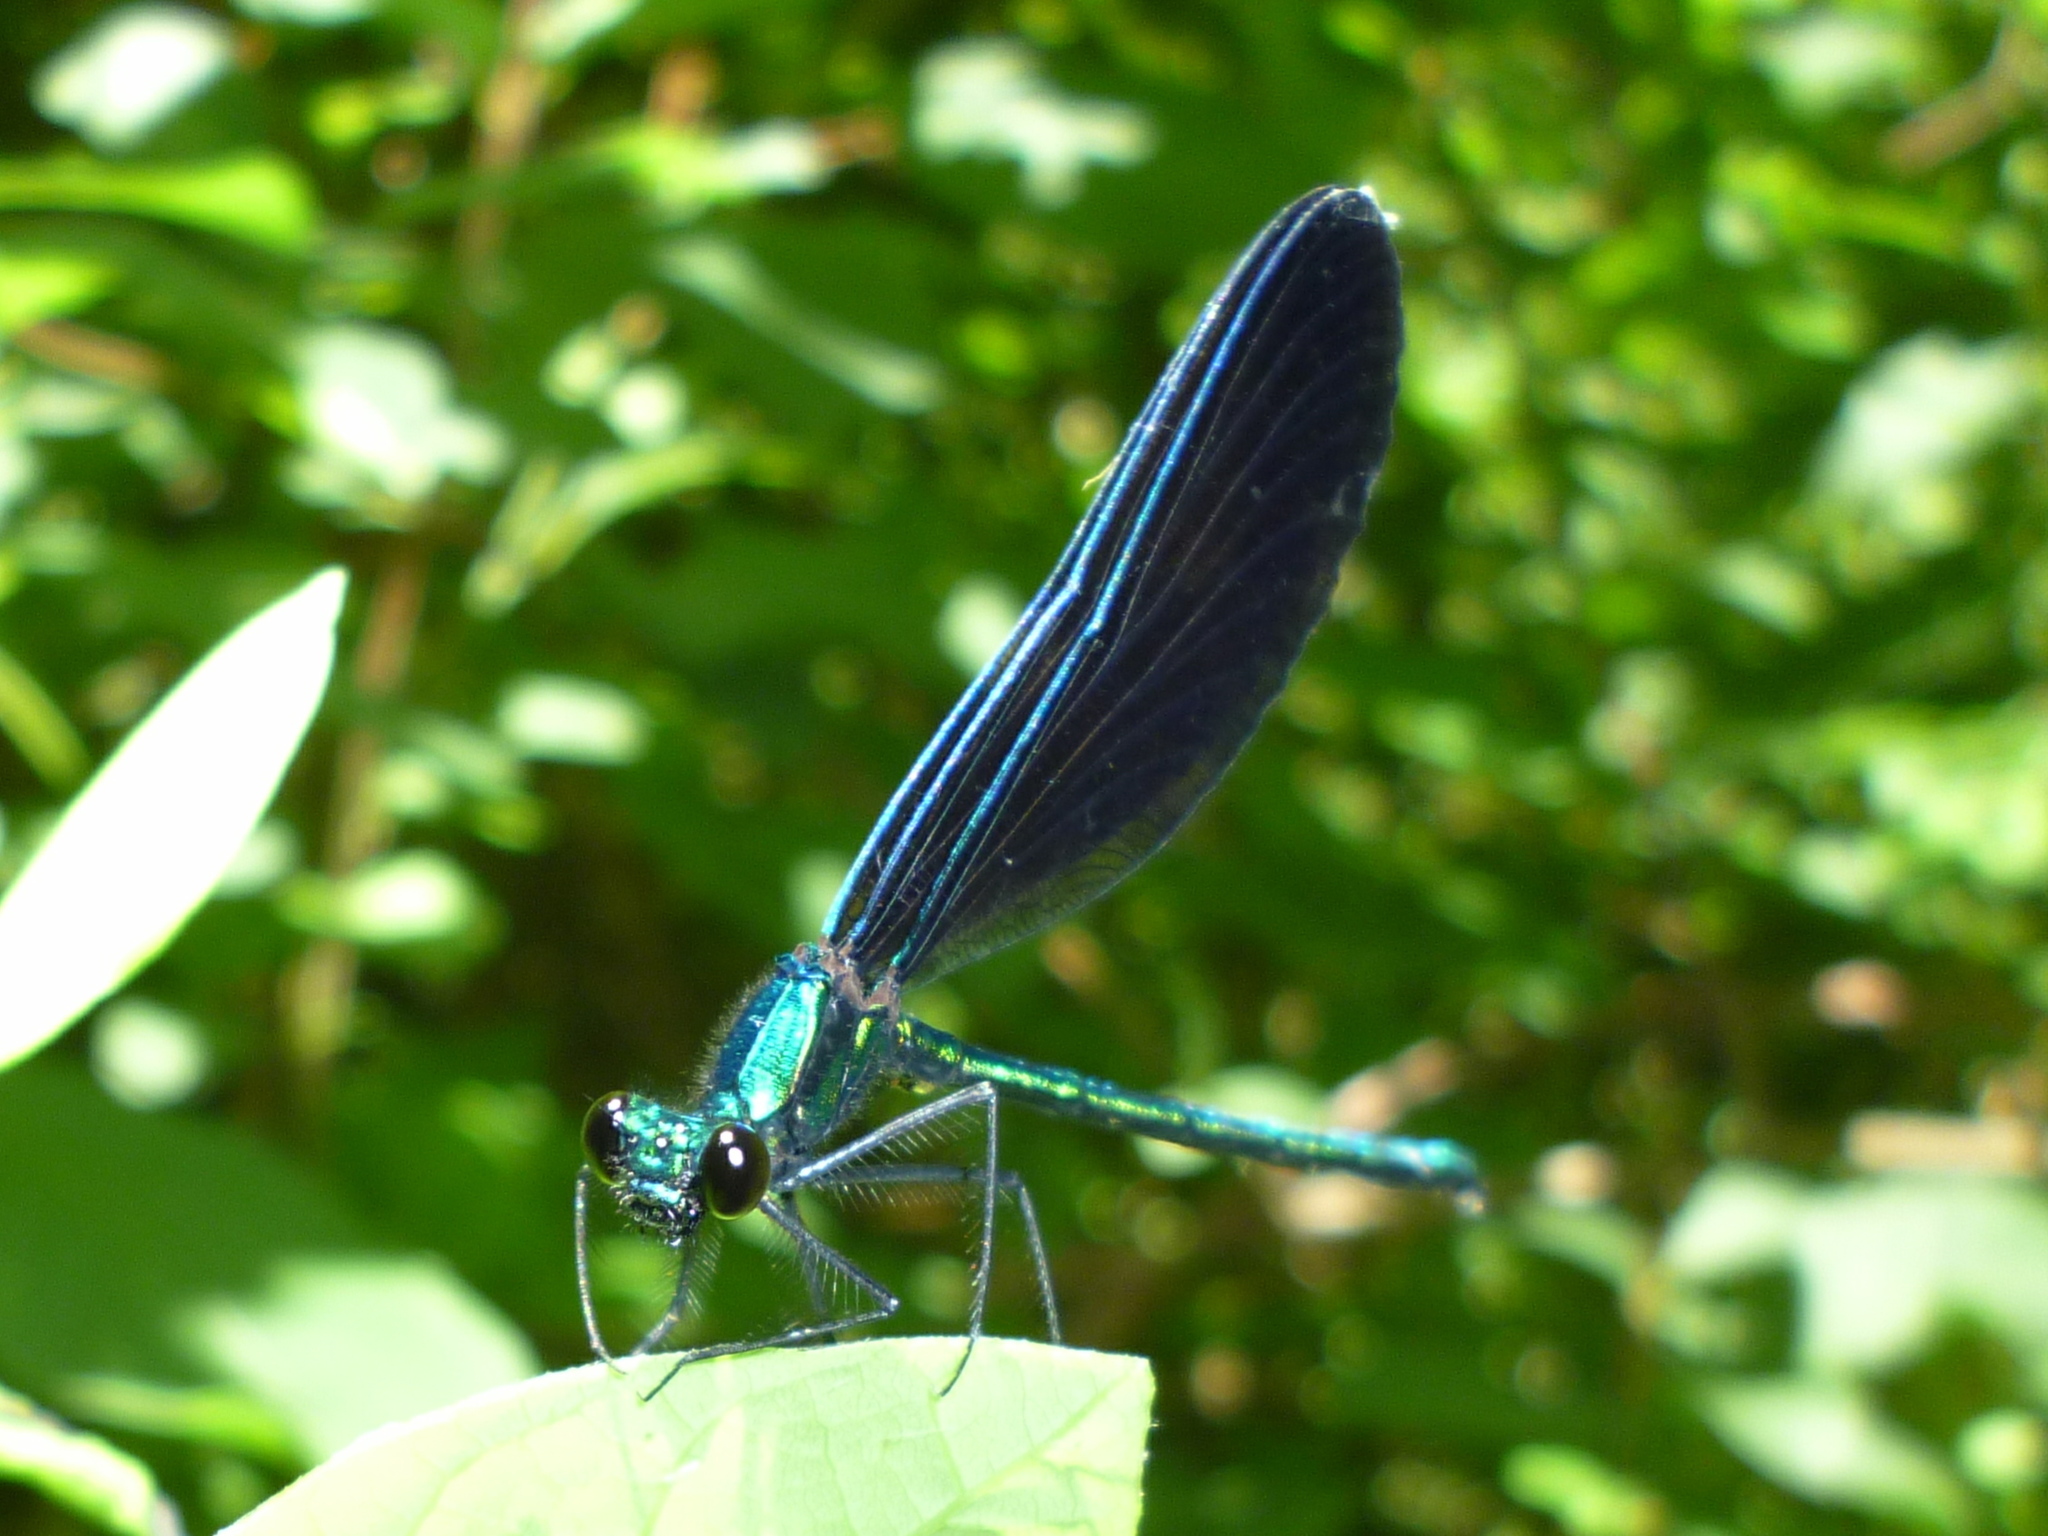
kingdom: Animalia
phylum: Arthropoda
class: Insecta
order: Odonata
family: Calopterygidae
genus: Calopteryx
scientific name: Calopteryx maculata
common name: Ebony jewelwing
